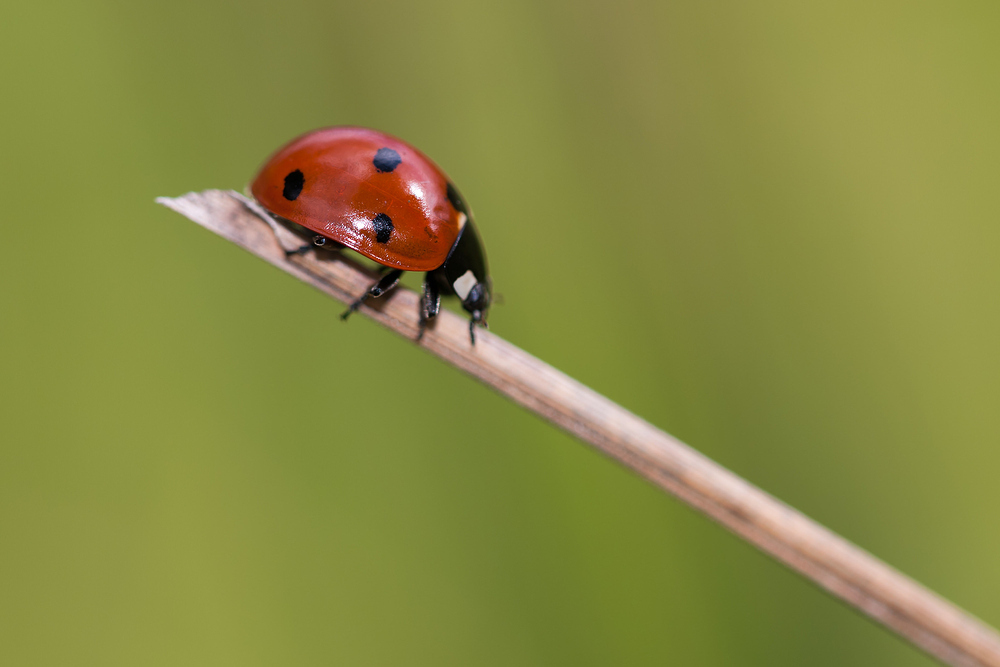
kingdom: Animalia
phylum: Arthropoda
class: Insecta
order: Coleoptera
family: Coccinellidae
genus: Coccinella
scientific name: Coccinella septempunctata
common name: Sevenspotted lady beetle
